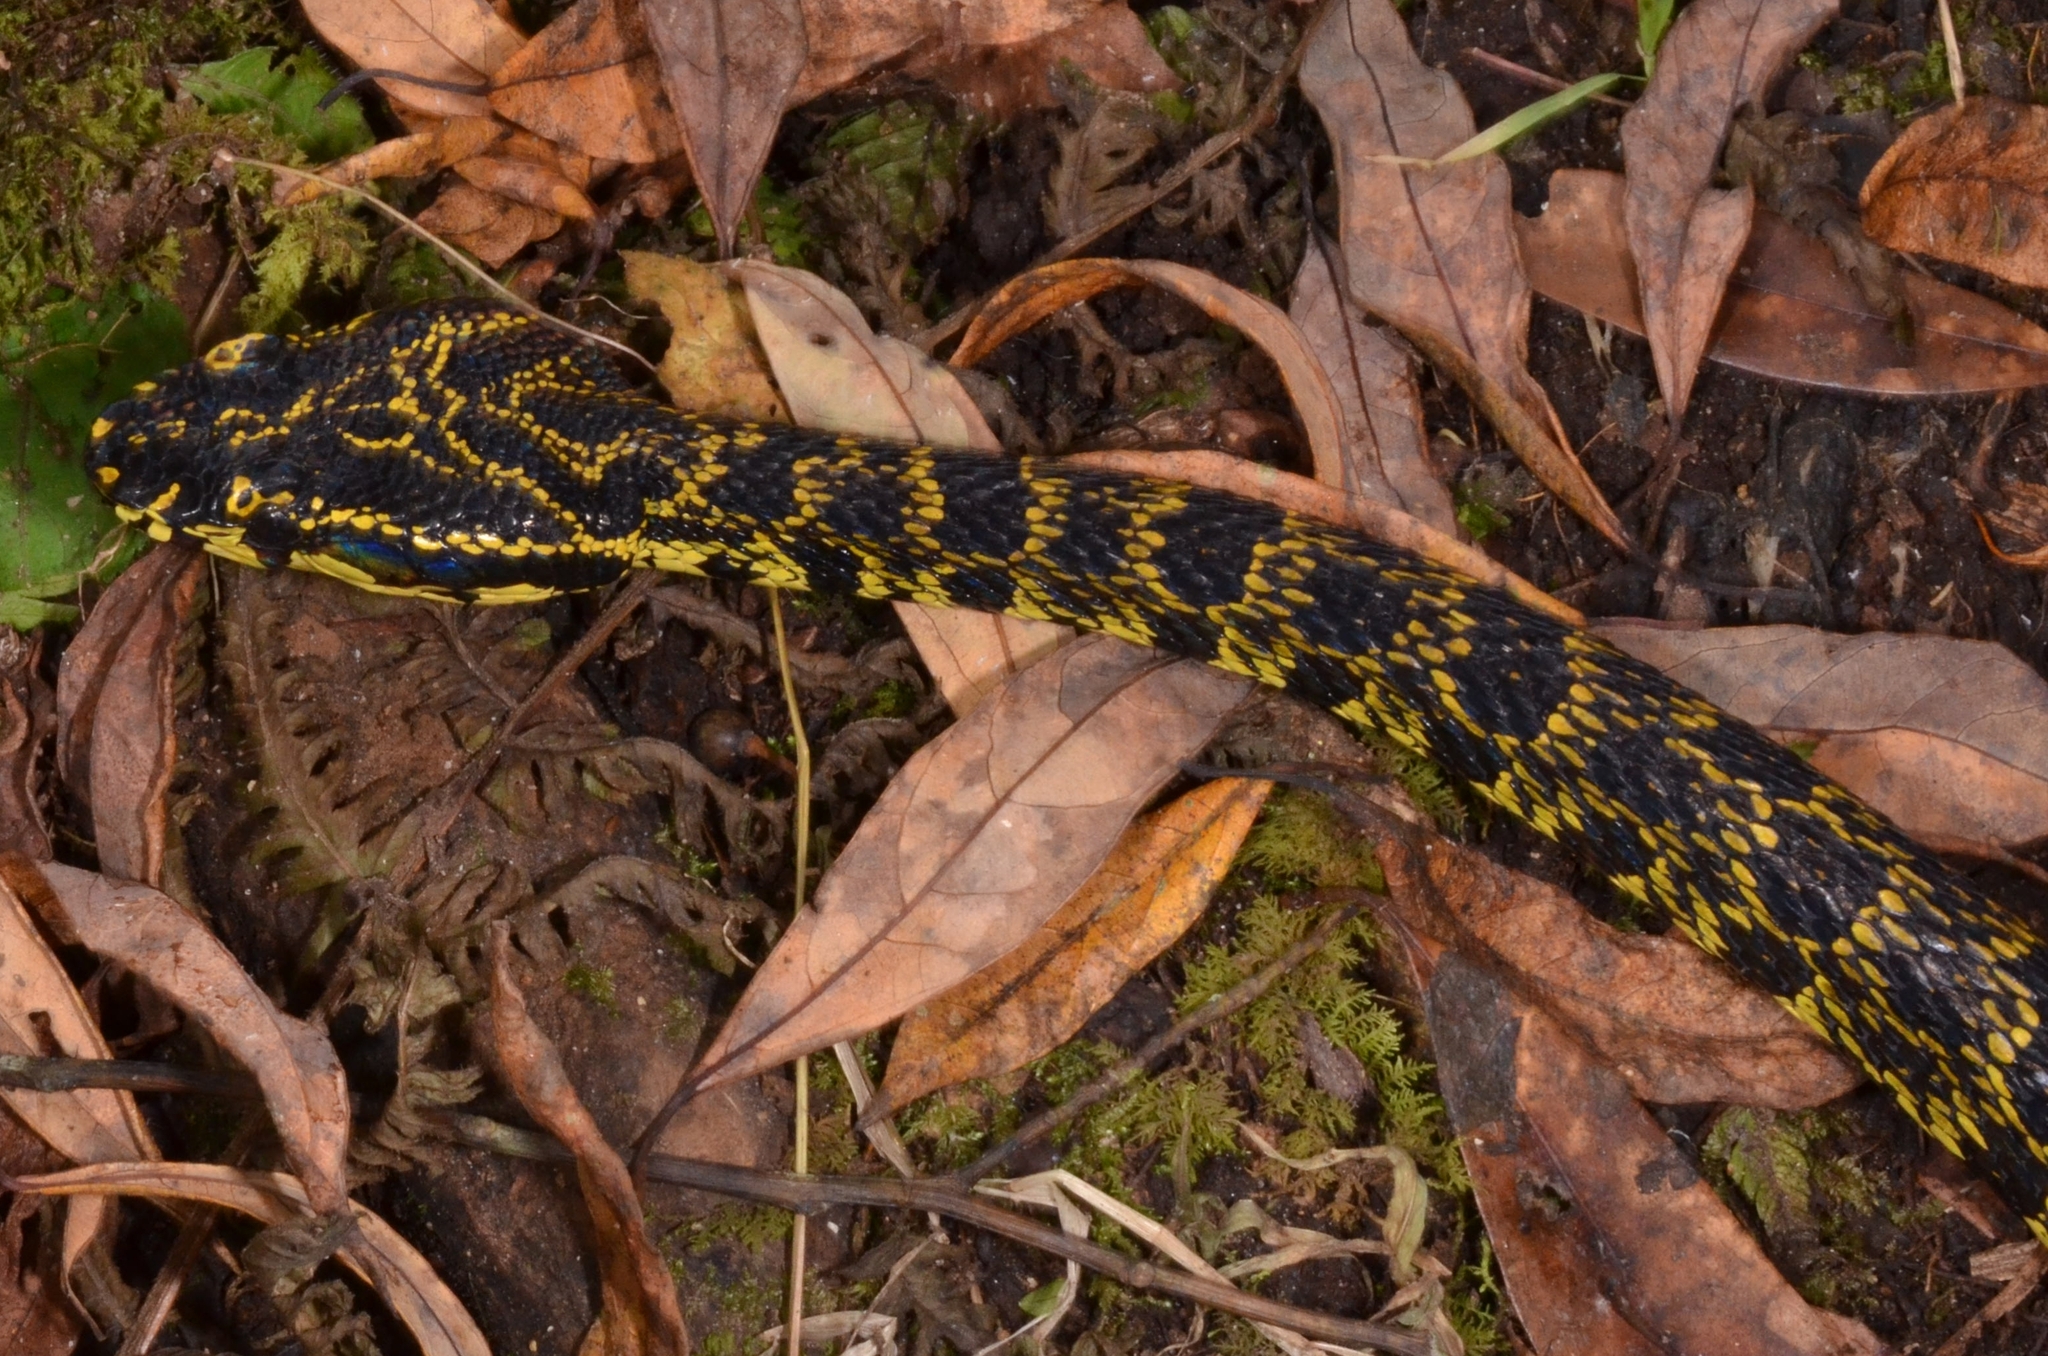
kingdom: Animalia
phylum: Chordata
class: Squamata
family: Viperidae
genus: Protobothrops
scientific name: Protobothrops jerdonii
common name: Jerdon's pitviper
